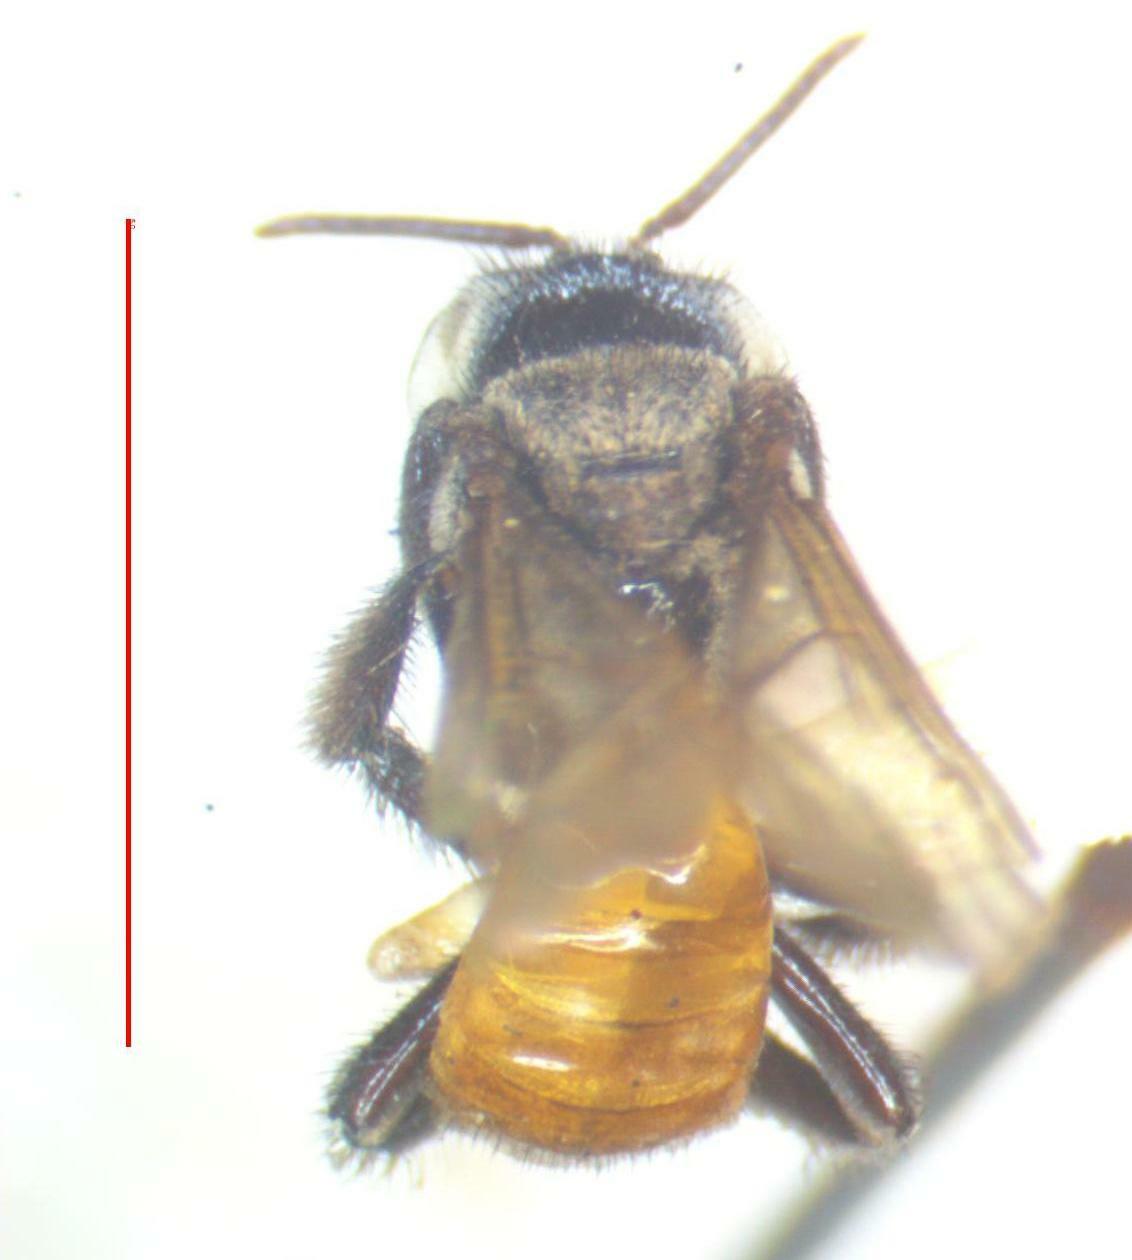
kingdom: Animalia
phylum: Arthropoda
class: Insecta
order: Hymenoptera
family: Apidae
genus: Trigona
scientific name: Trigona fulviventris
